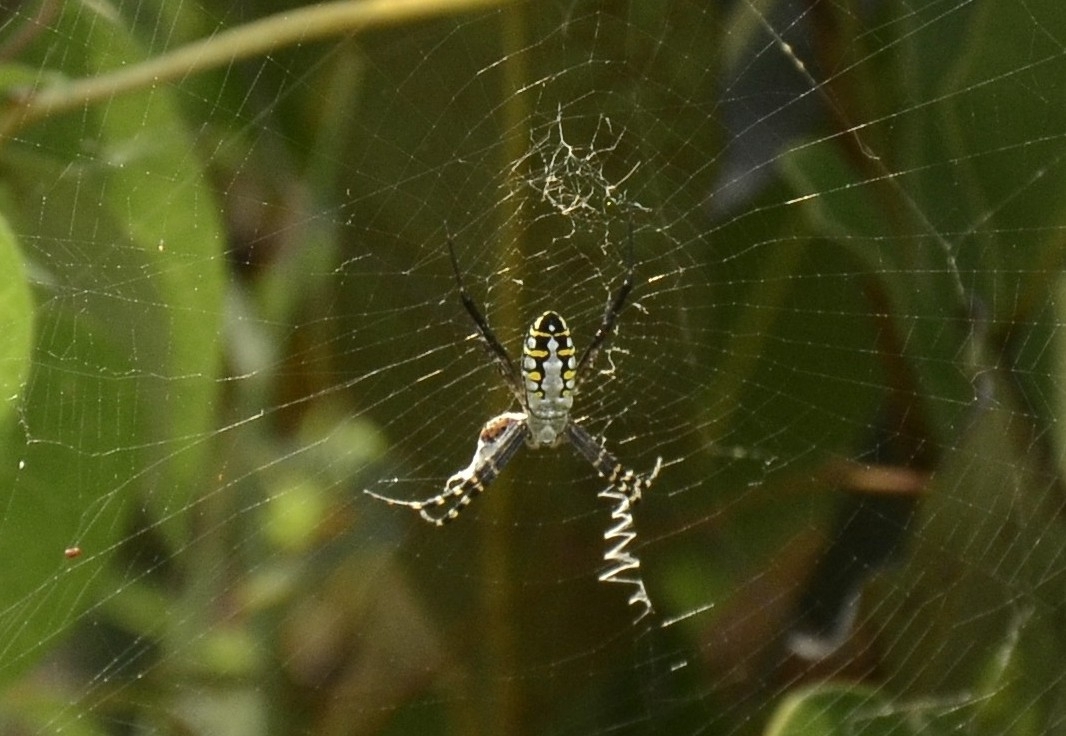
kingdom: Animalia
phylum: Arthropoda
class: Arachnida
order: Araneae
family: Araneidae
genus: Argiope
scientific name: Argiope catenulata
